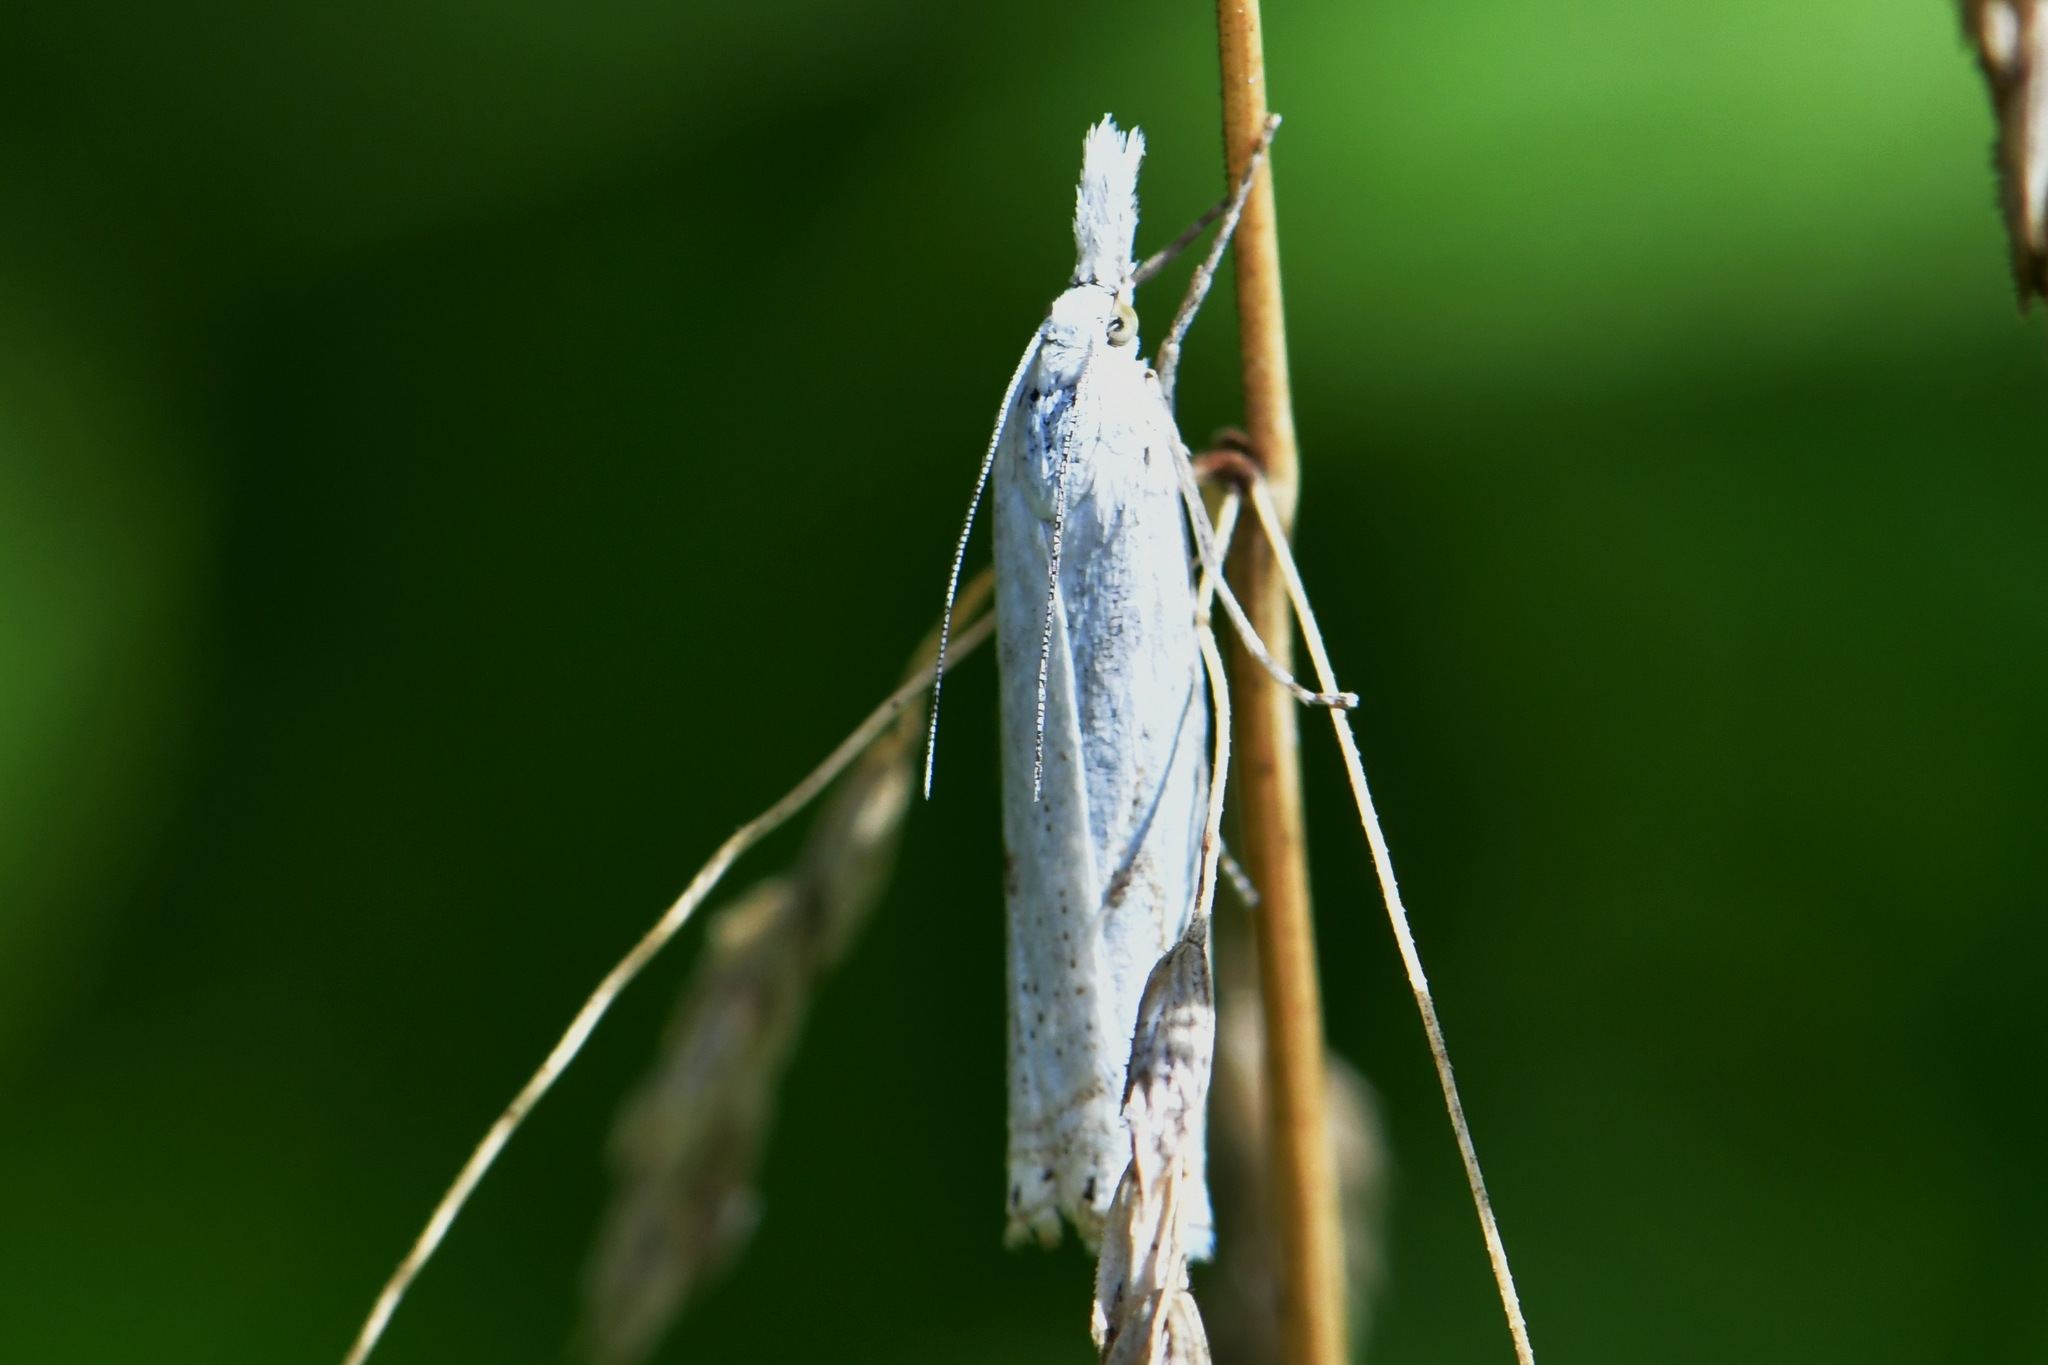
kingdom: Animalia
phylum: Arthropoda
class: Insecta
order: Lepidoptera
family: Crambidae
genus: Crambus
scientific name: Crambus nemorella
